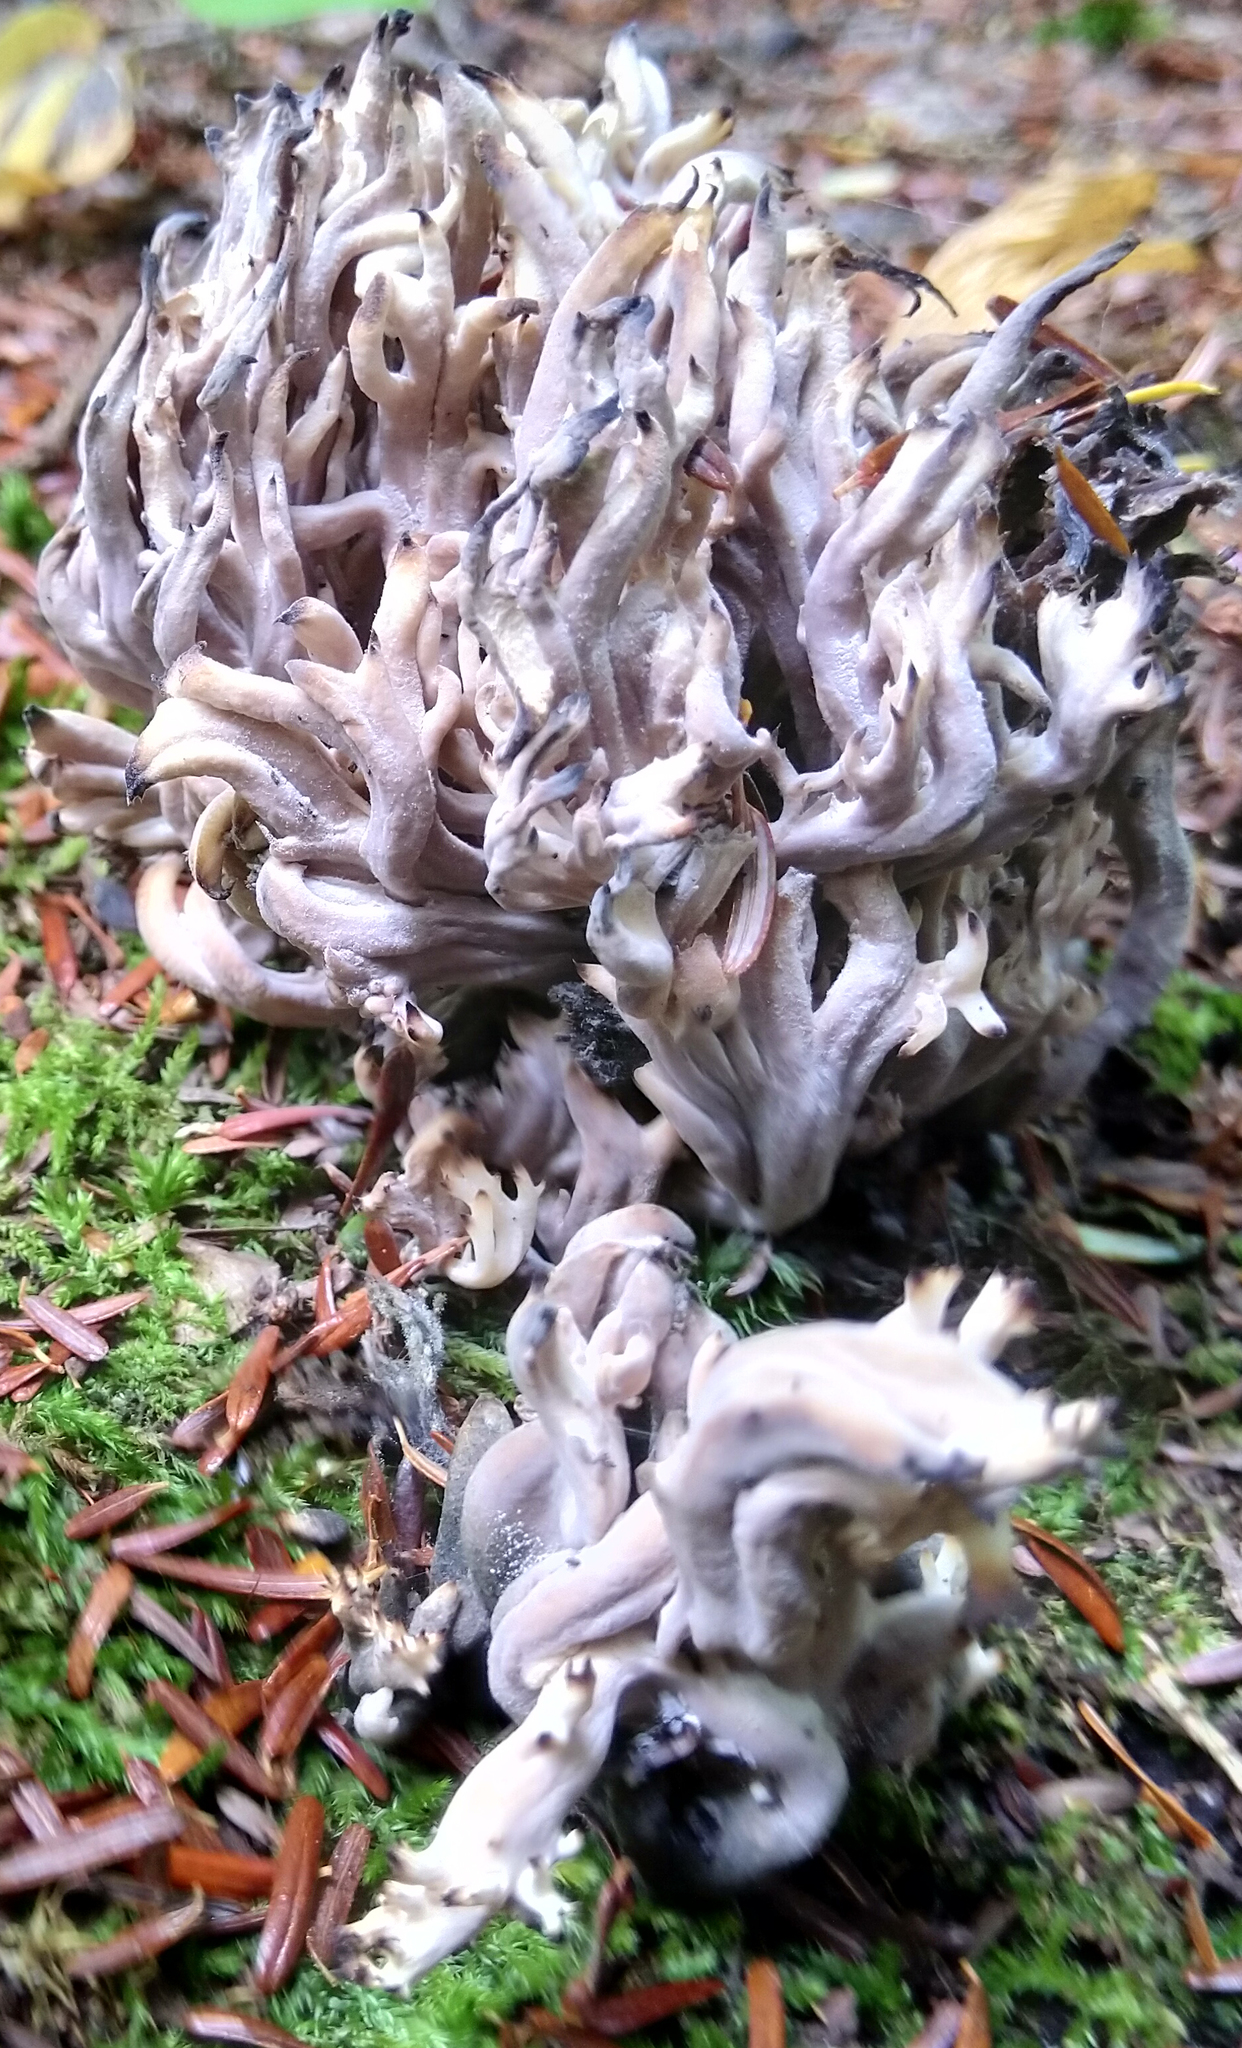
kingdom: Fungi
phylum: Ascomycota
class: Sordariomycetes
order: Sordariales
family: Helminthosphaeriaceae
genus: Helminthosphaeria
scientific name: Helminthosphaeria clavariarum
